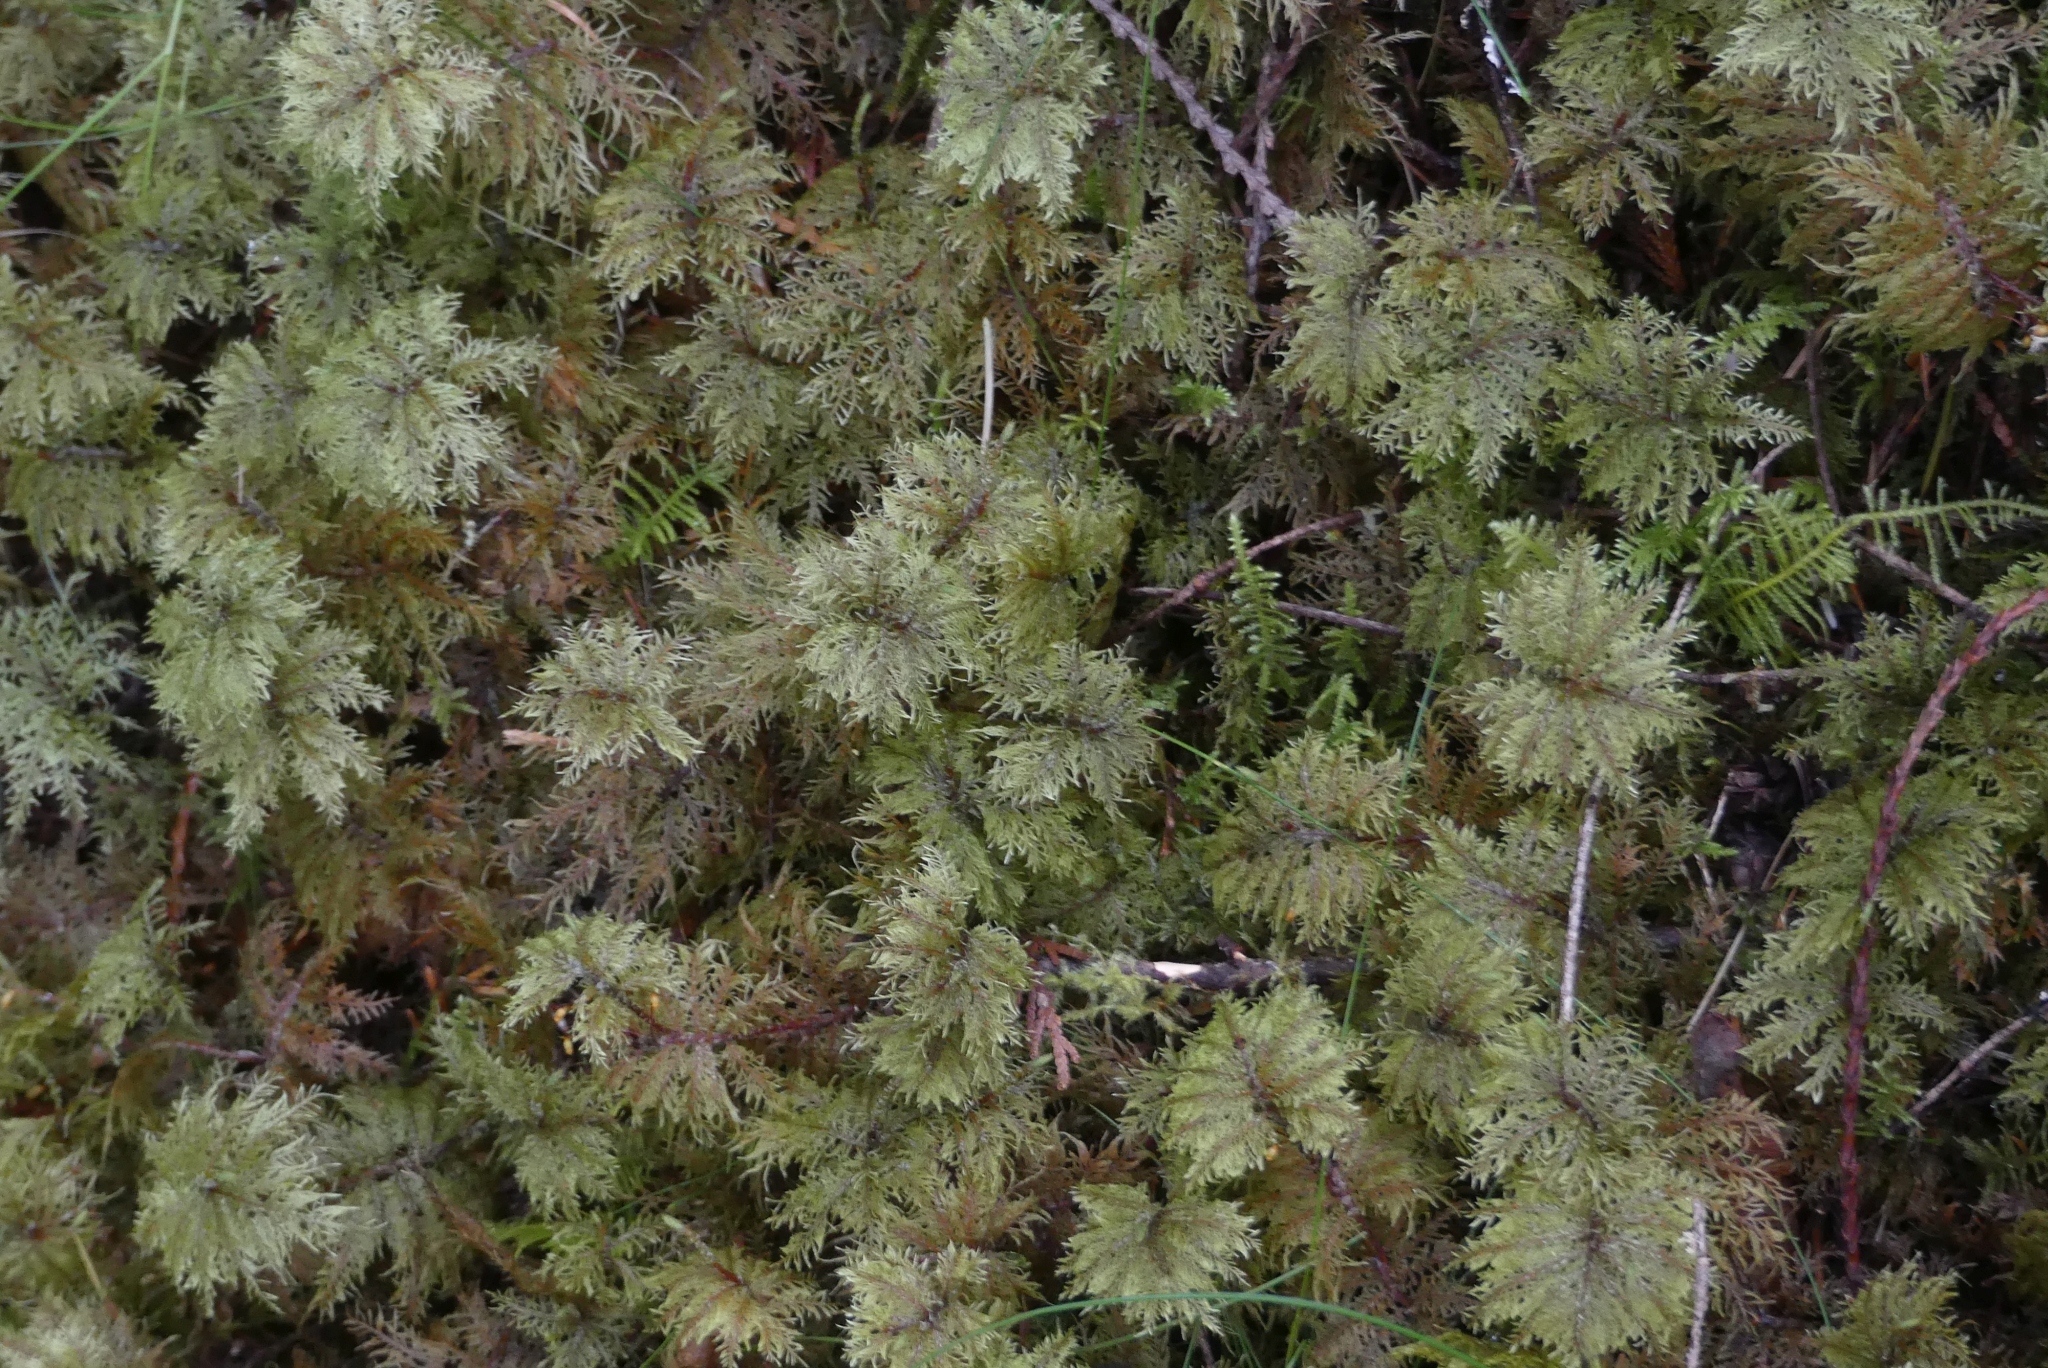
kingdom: Plantae
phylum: Bryophyta
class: Bryopsida
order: Hypnales
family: Hylocomiaceae
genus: Hylocomium
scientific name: Hylocomium splendens
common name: Stairstep moss
